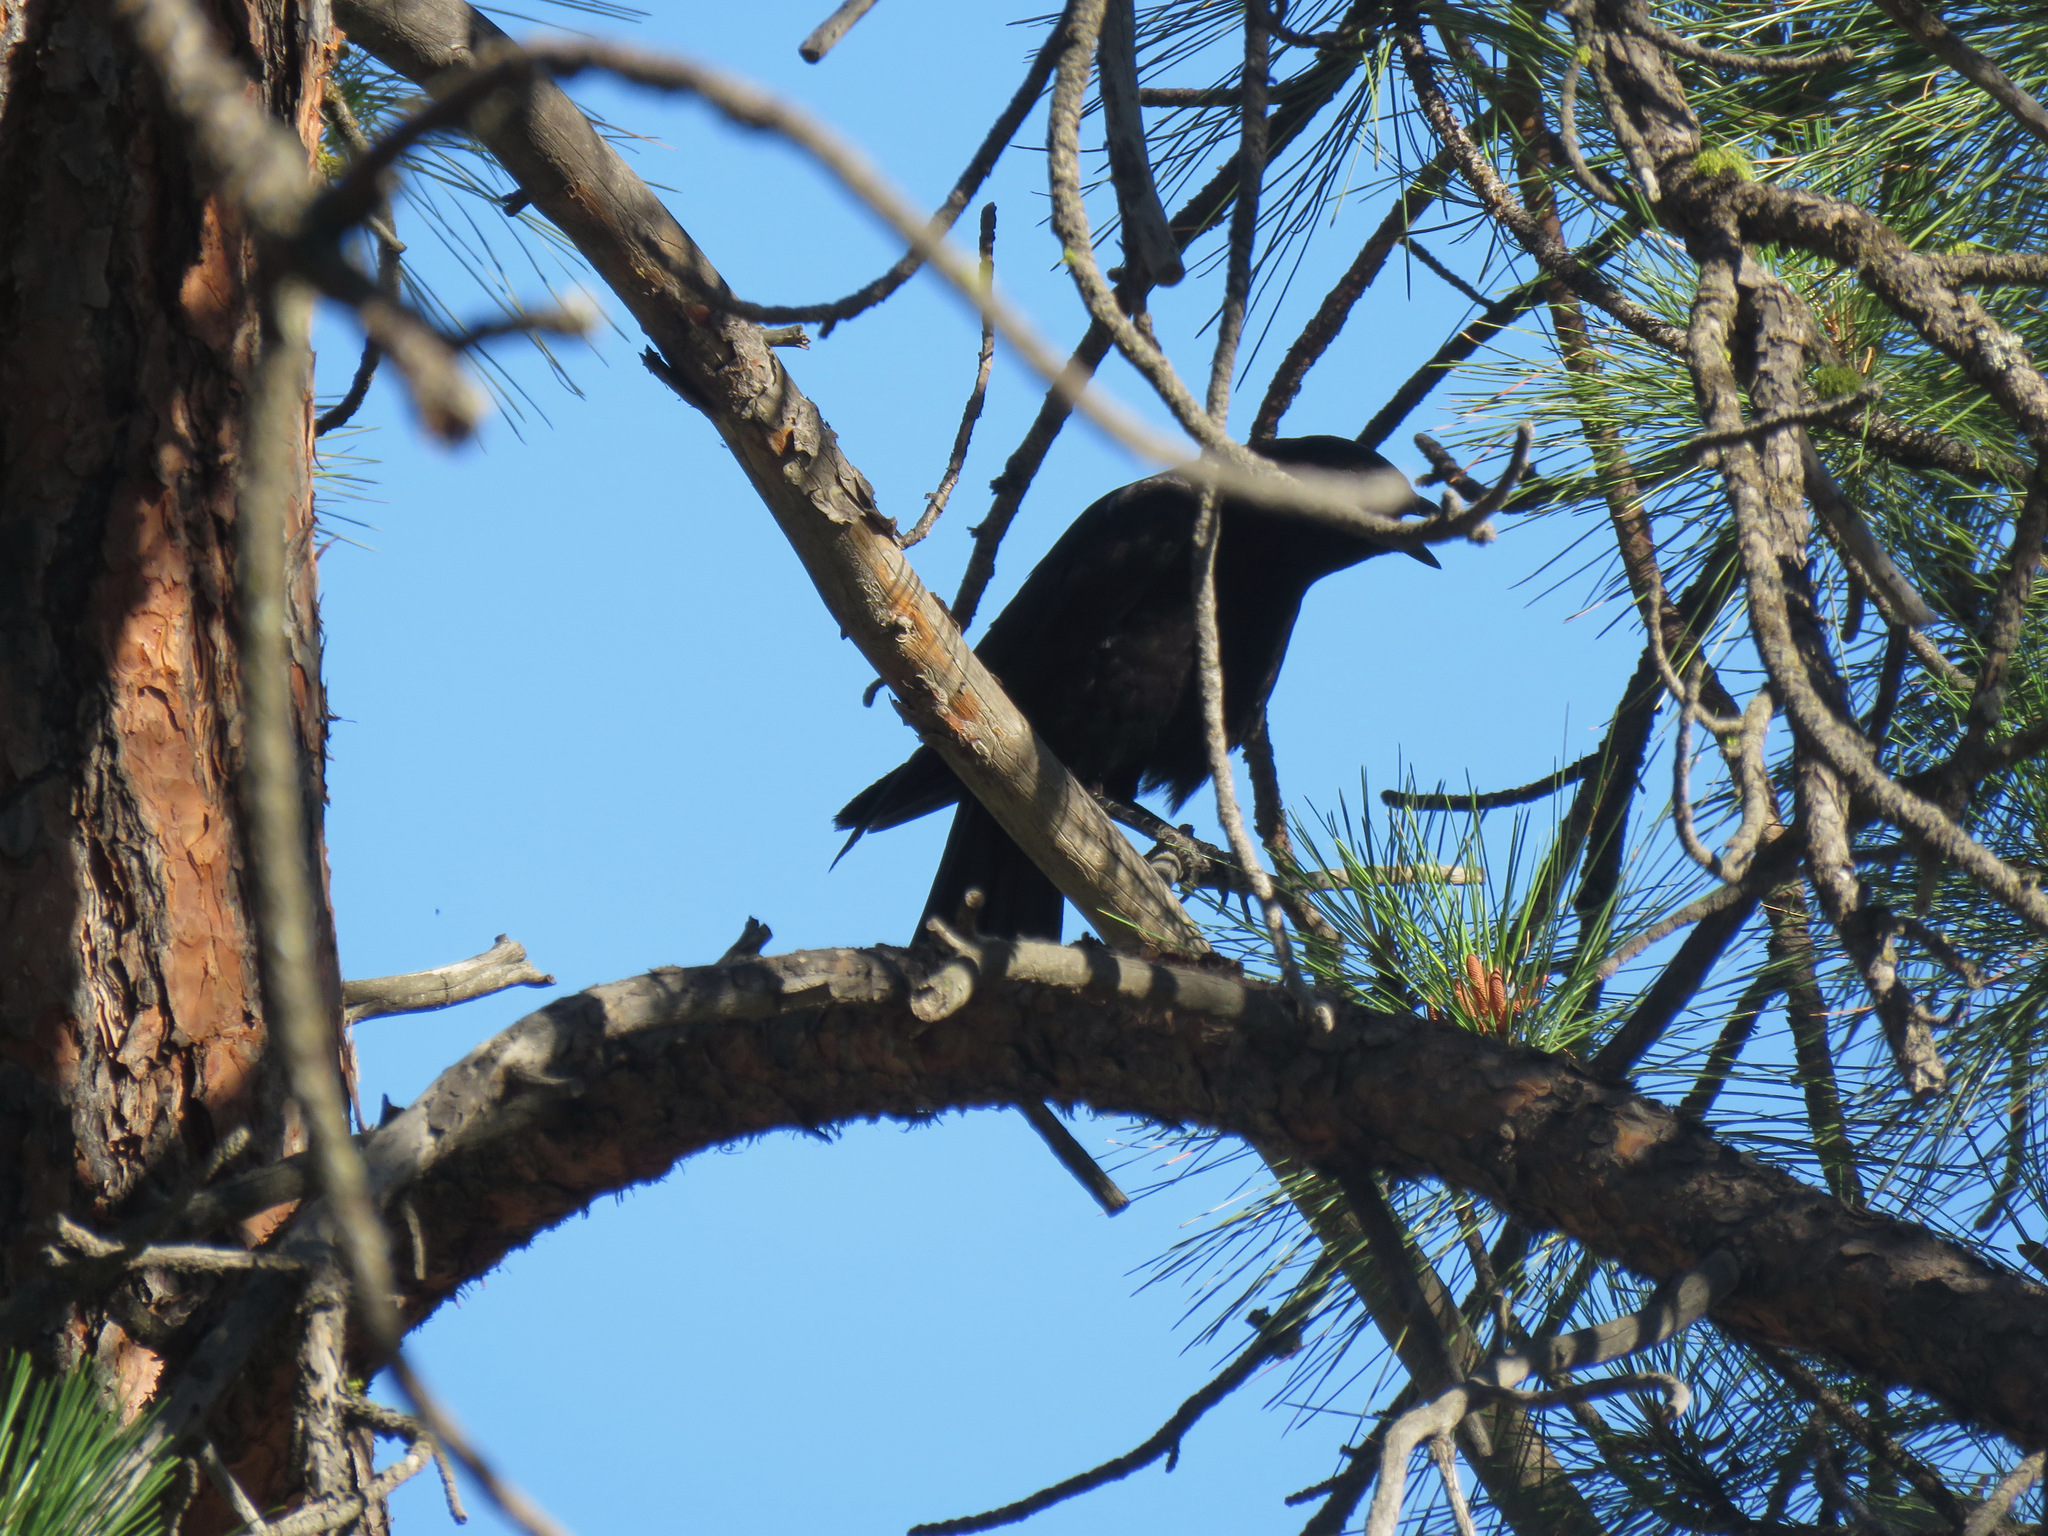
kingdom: Animalia
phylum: Chordata
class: Aves
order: Passeriformes
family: Corvidae
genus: Corvus
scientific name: Corvus brachyrhynchos
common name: American crow
